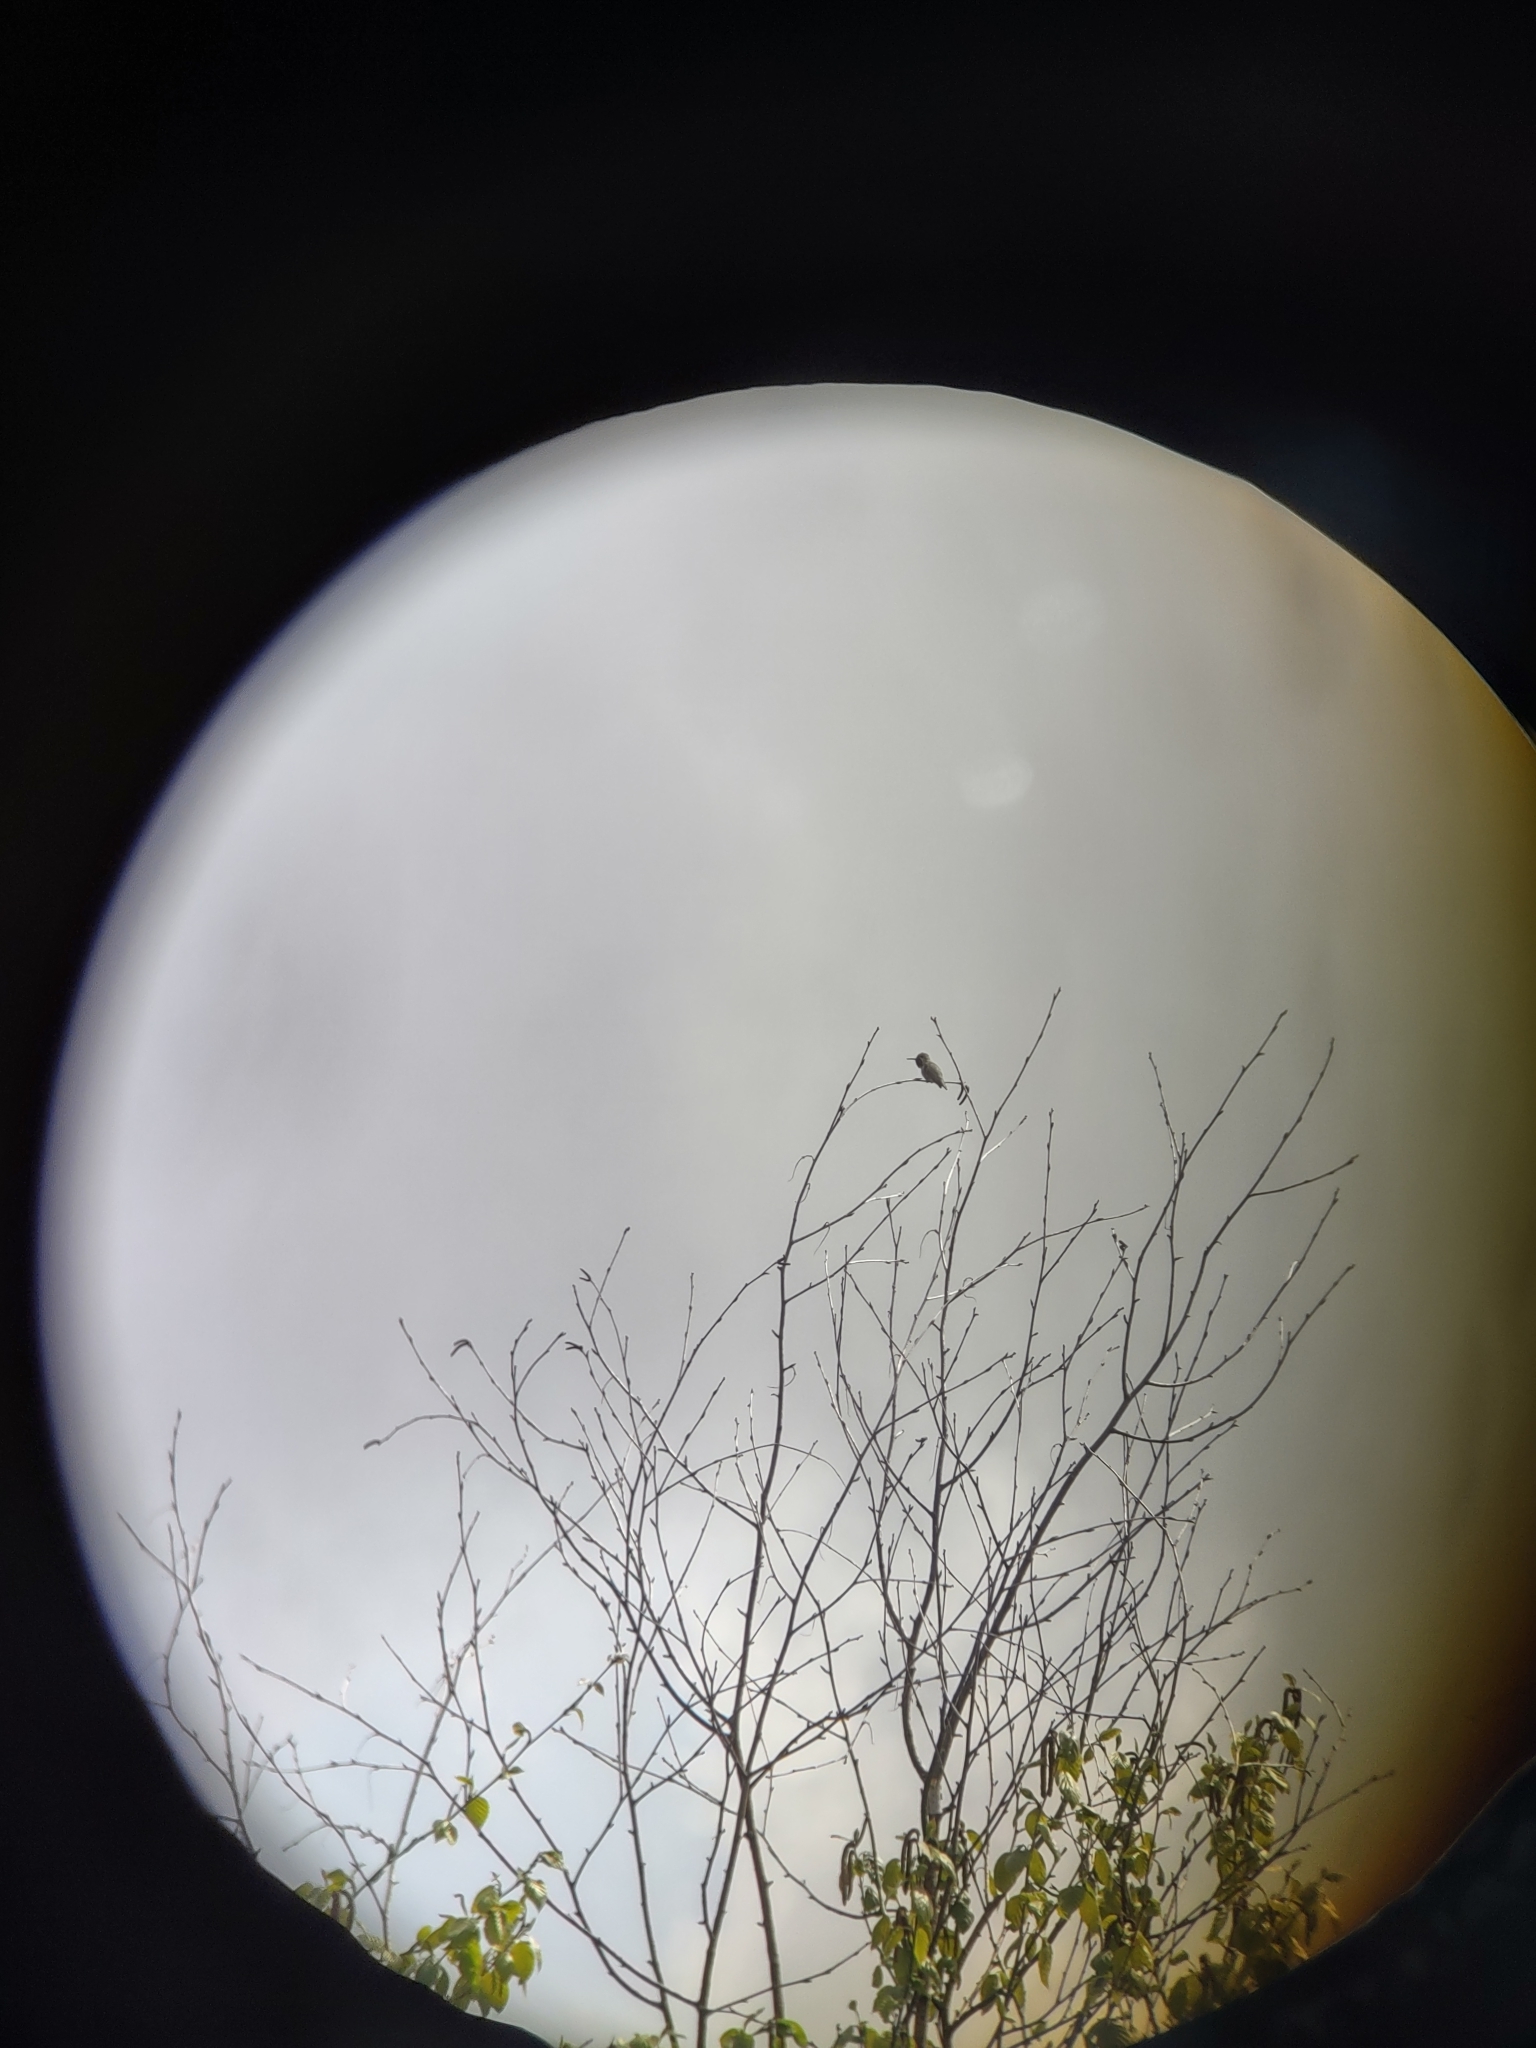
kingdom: Animalia
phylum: Chordata
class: Aves
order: Apodiformes
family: Trochilidae
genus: Calypte
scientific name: Calypte anna
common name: Anna's hummingbird
